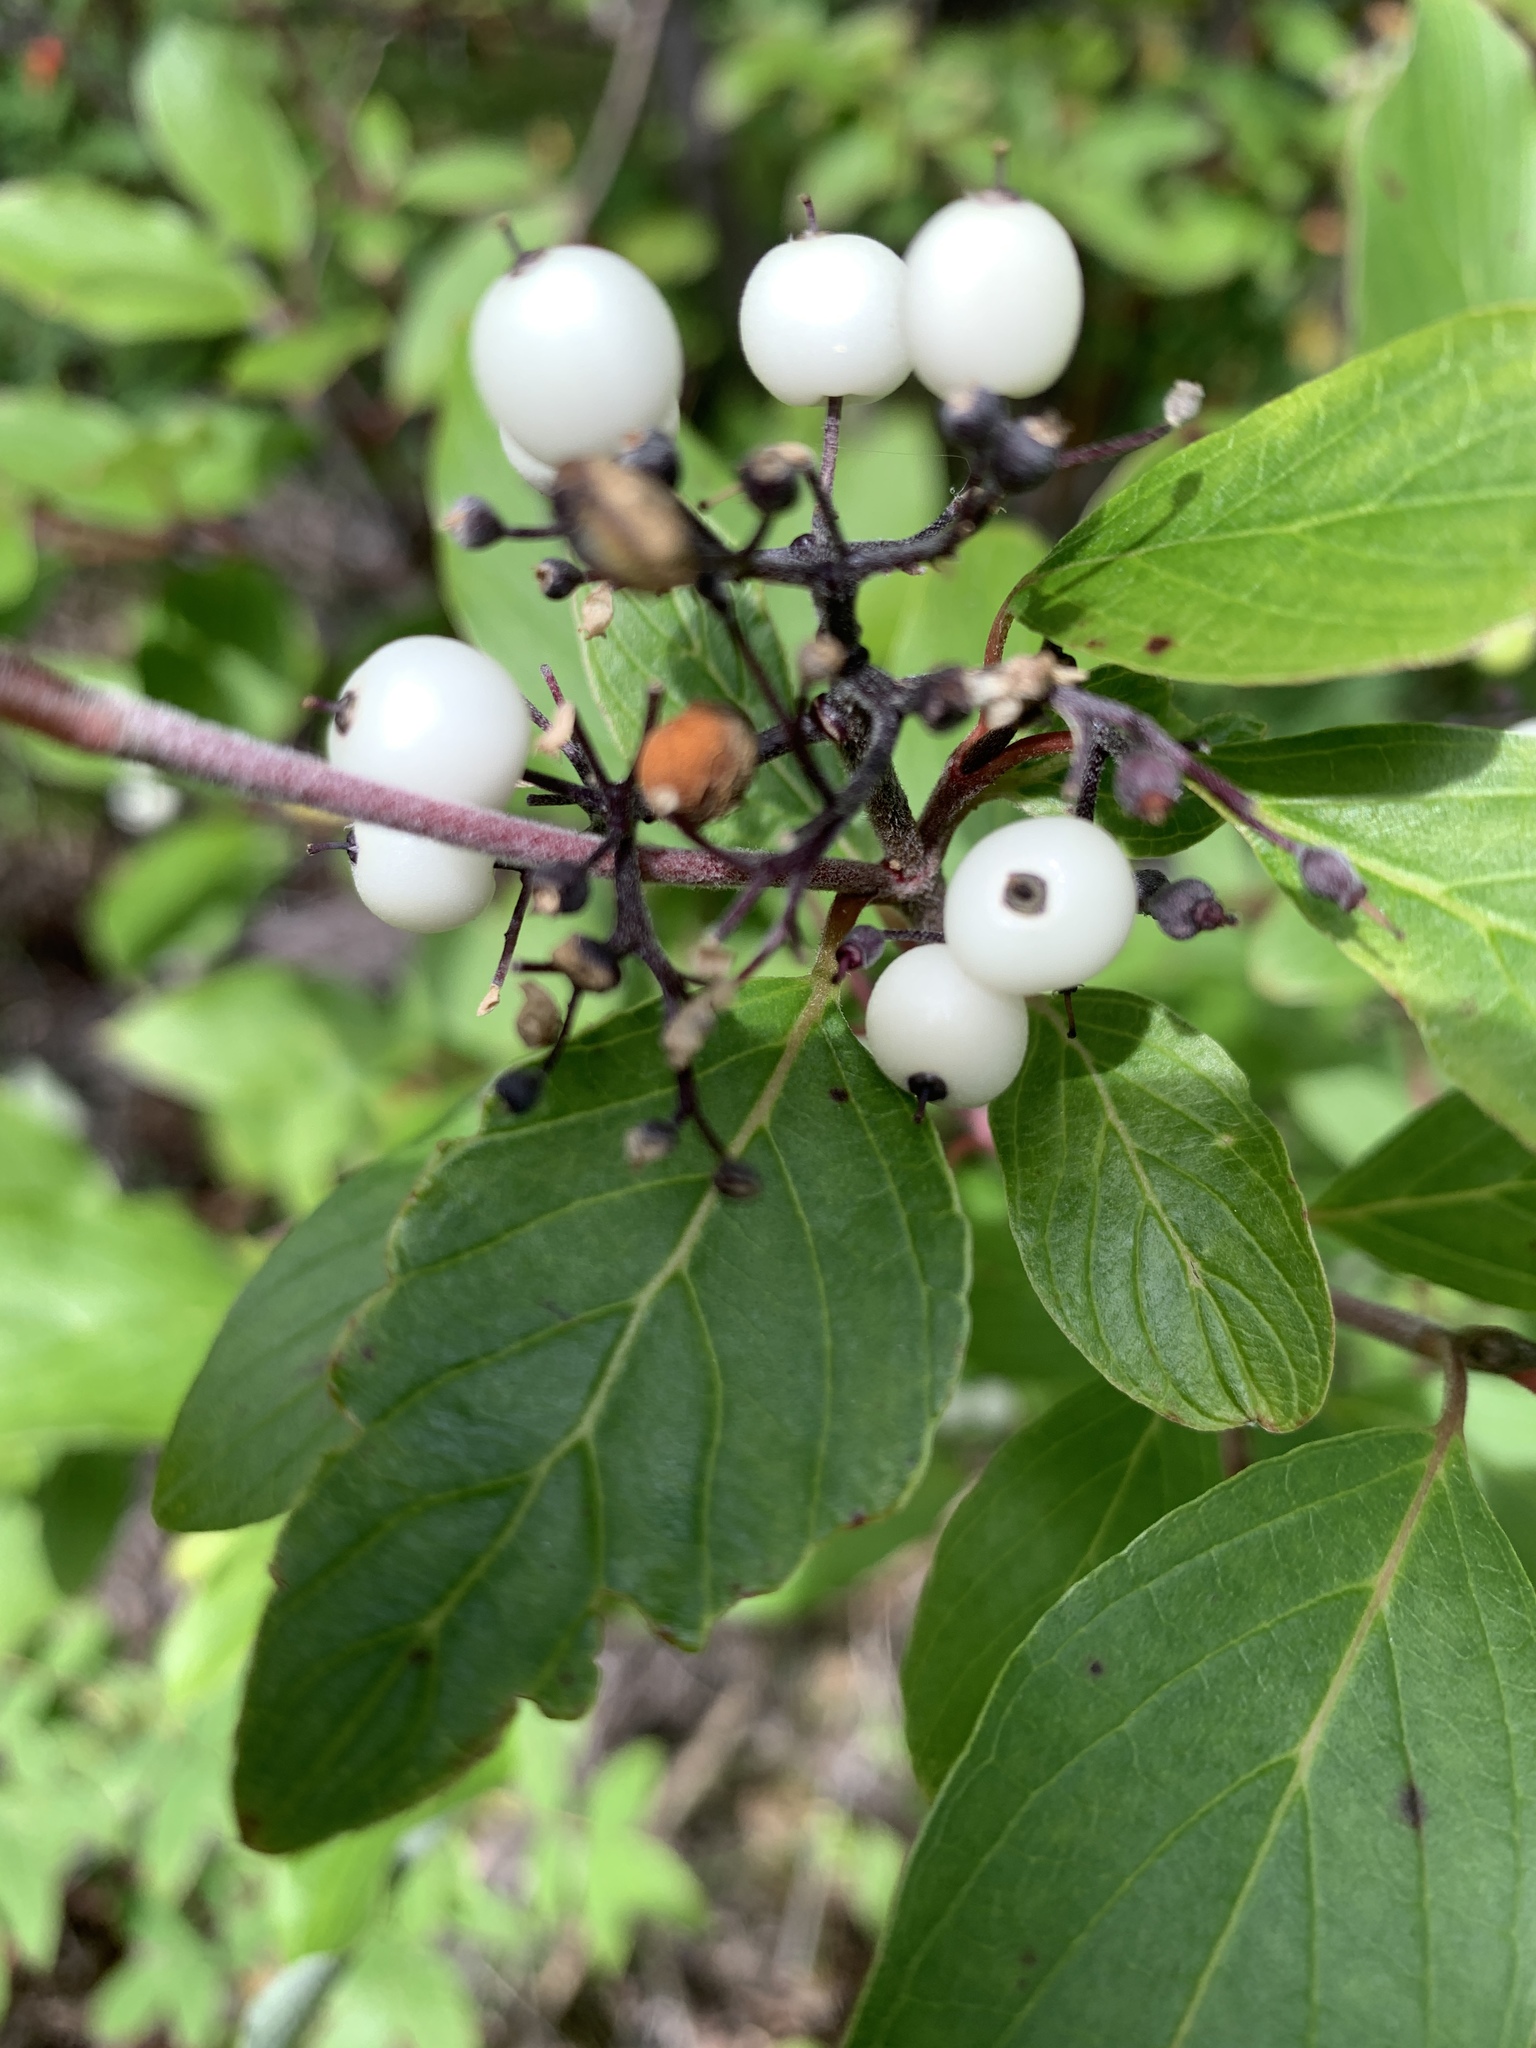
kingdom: Plantae
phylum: Tracheophyta
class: Magnoliopsida
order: Cornales
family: Cornaceae
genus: Cornus
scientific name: Cornus sericea
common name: Red-osier dogwood
